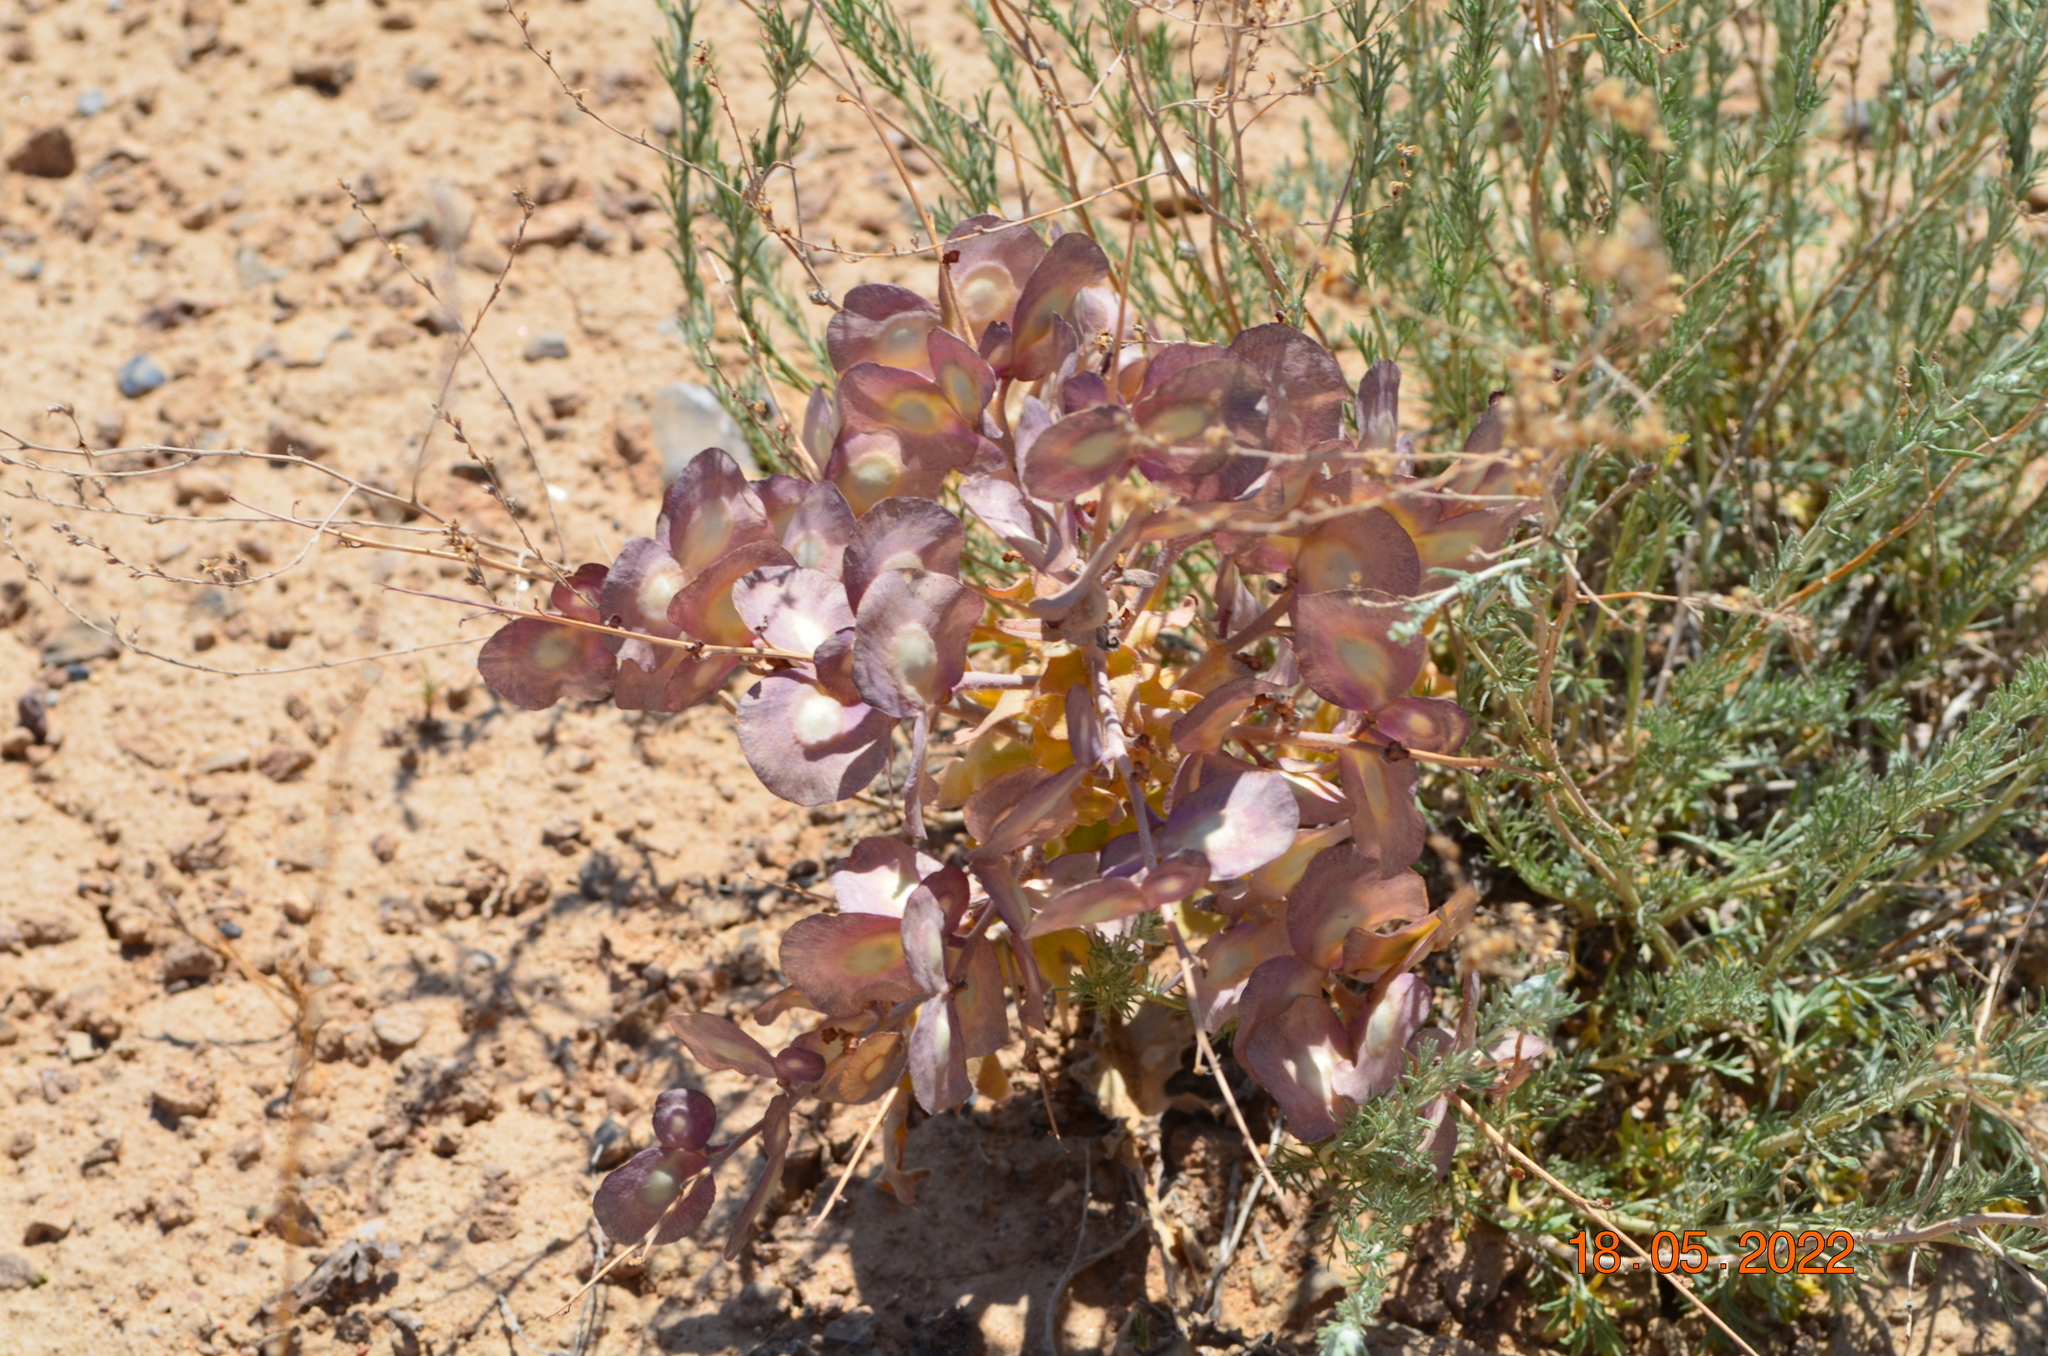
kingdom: Plantae
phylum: Tracheophyta
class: Magnoliopsida
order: Brassicales
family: Brassicaceae
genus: Megacarpaea
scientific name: Megacarpaea megalocarpa
